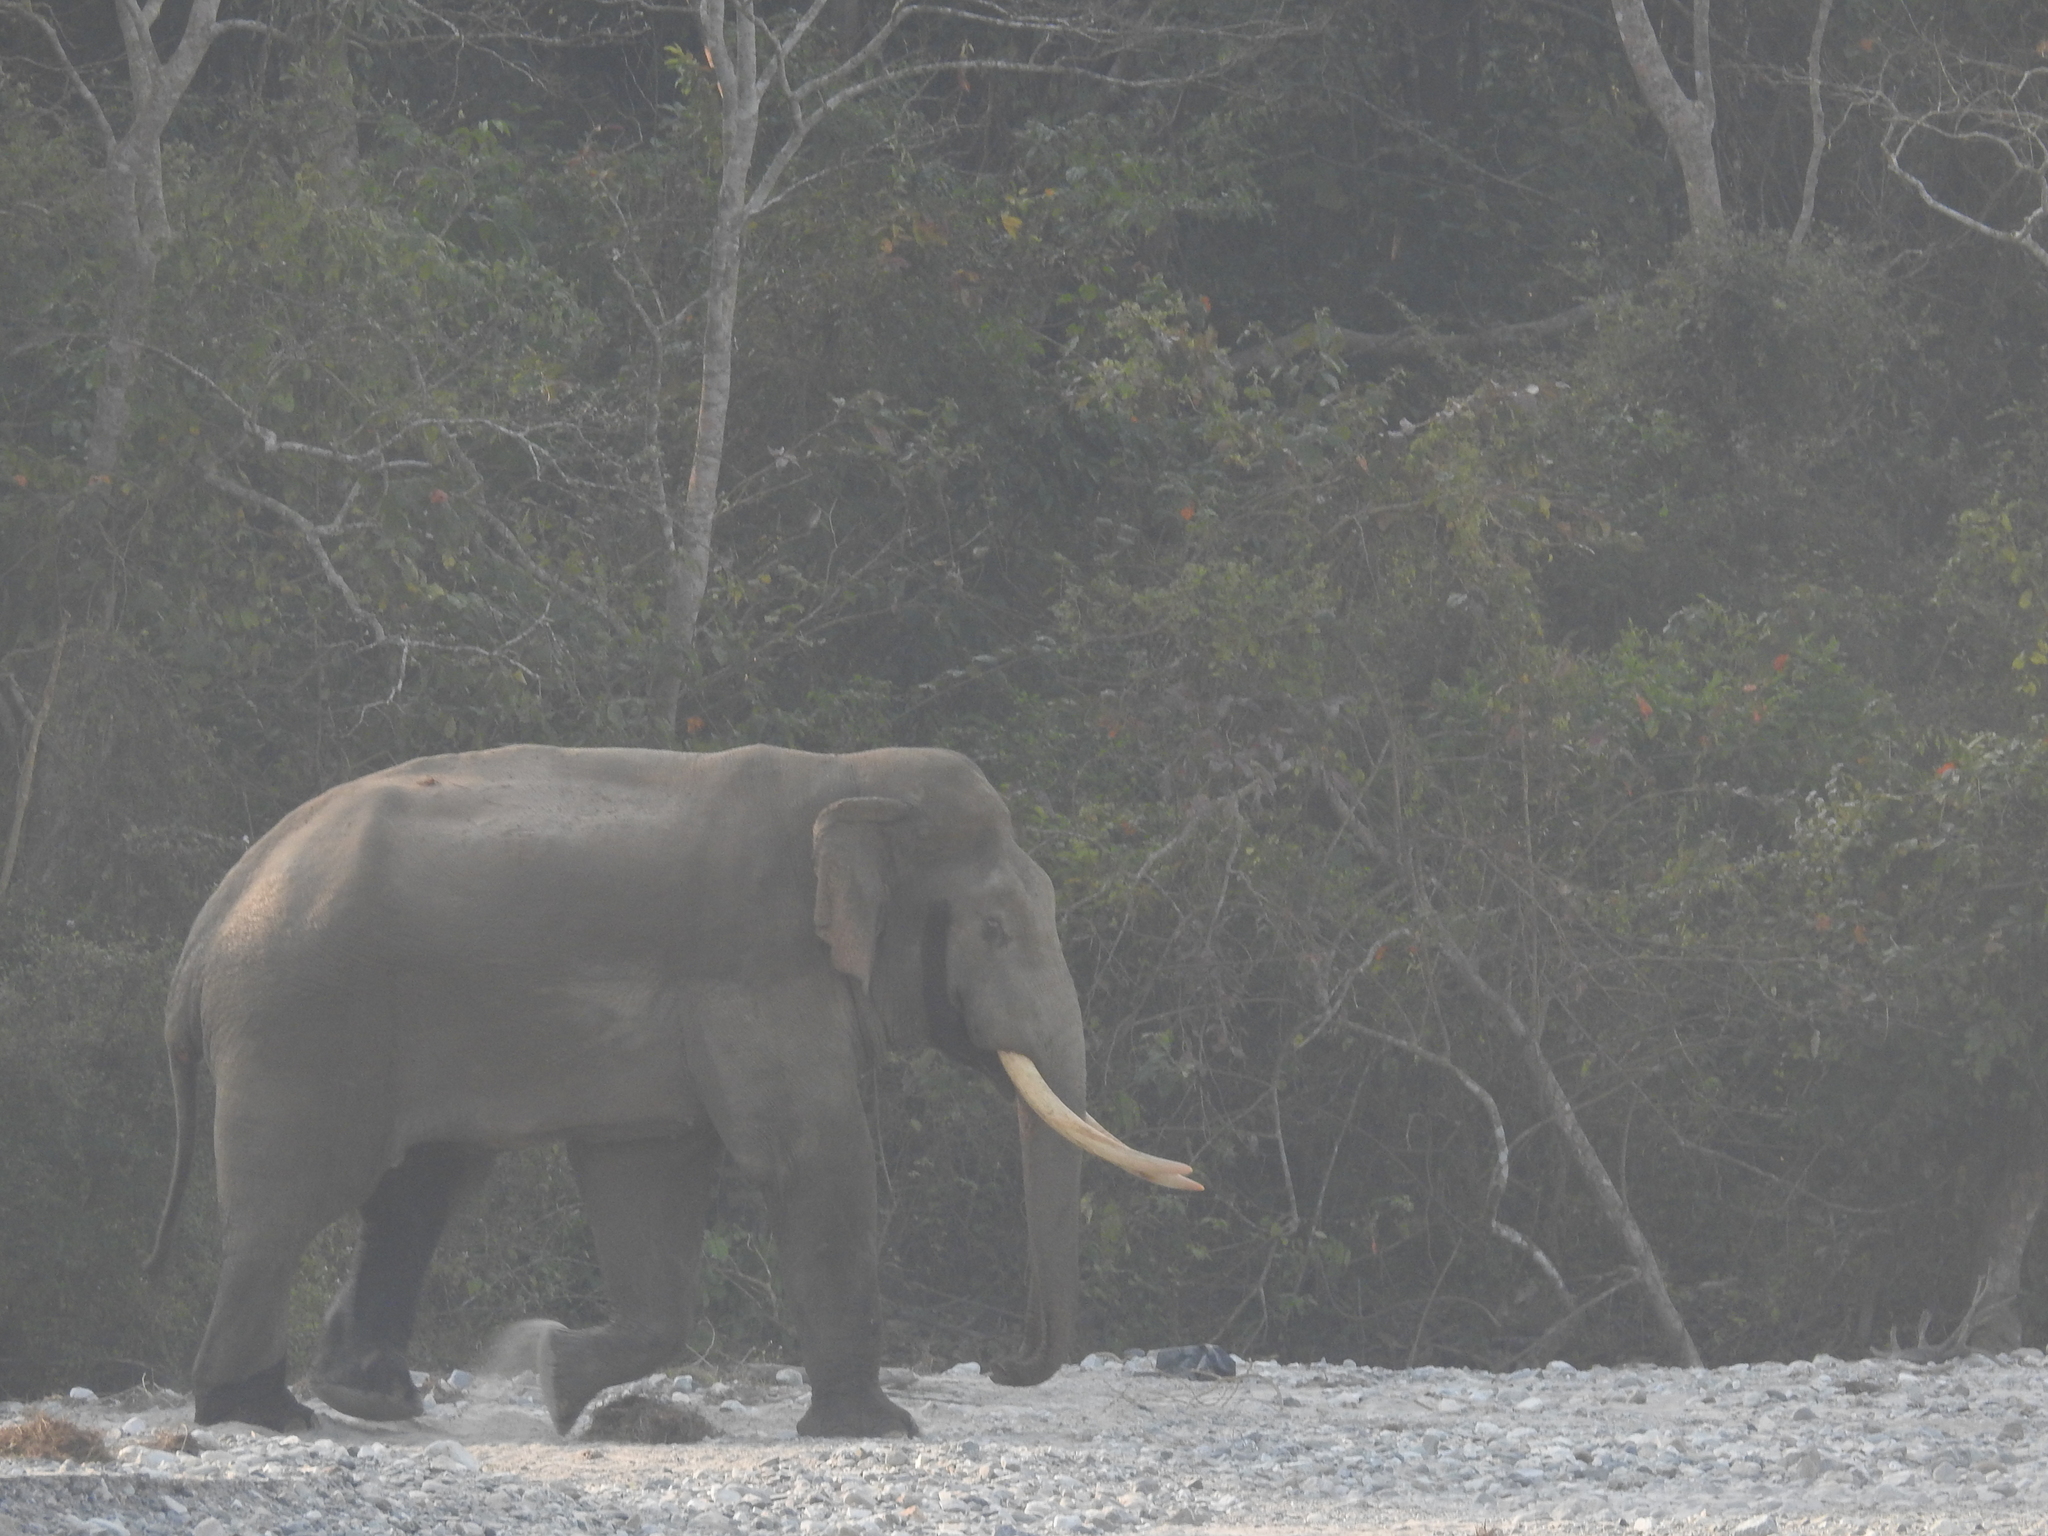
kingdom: Animalia
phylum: Chordata
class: Mammalia
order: Proboscidea
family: Elephantidae
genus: Elephas
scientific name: Elephas maximus
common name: Asian elephant
